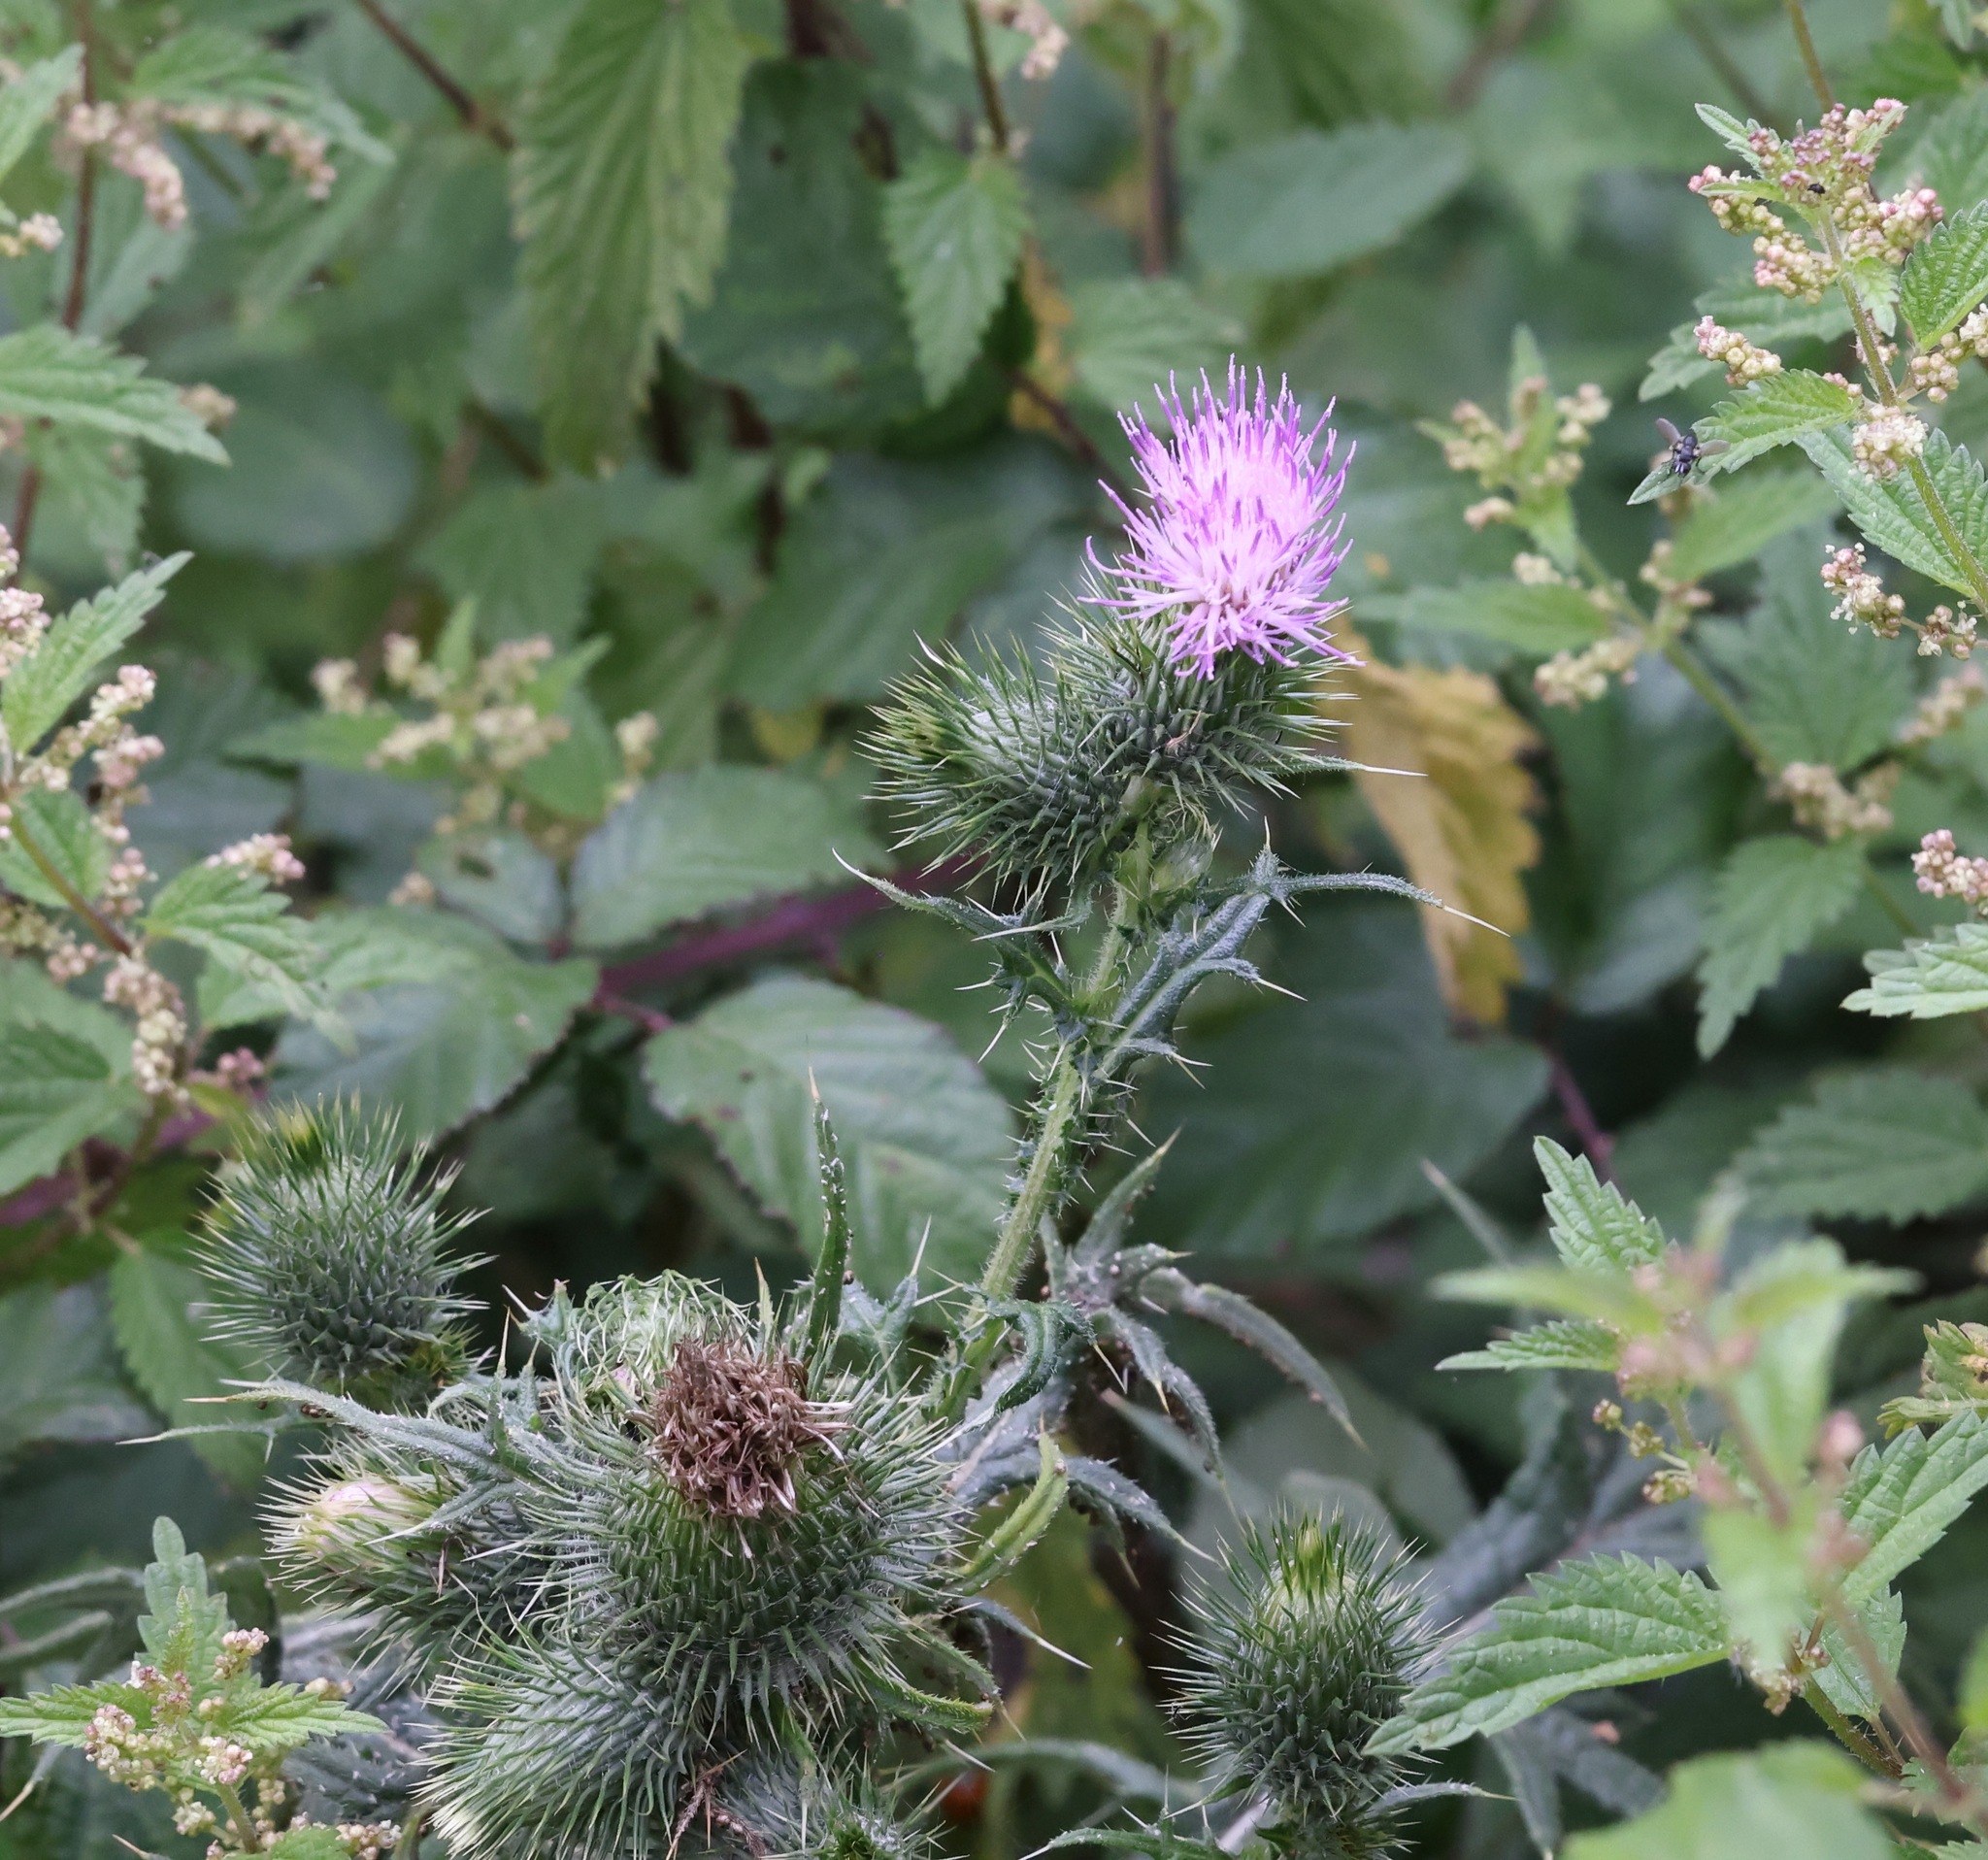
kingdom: Plantae
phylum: Tracheophyta
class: Magnoliopsida
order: Asterales
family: Asteraceae
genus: Cirsium
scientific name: Cirsium vulgare
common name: Bull thistle
